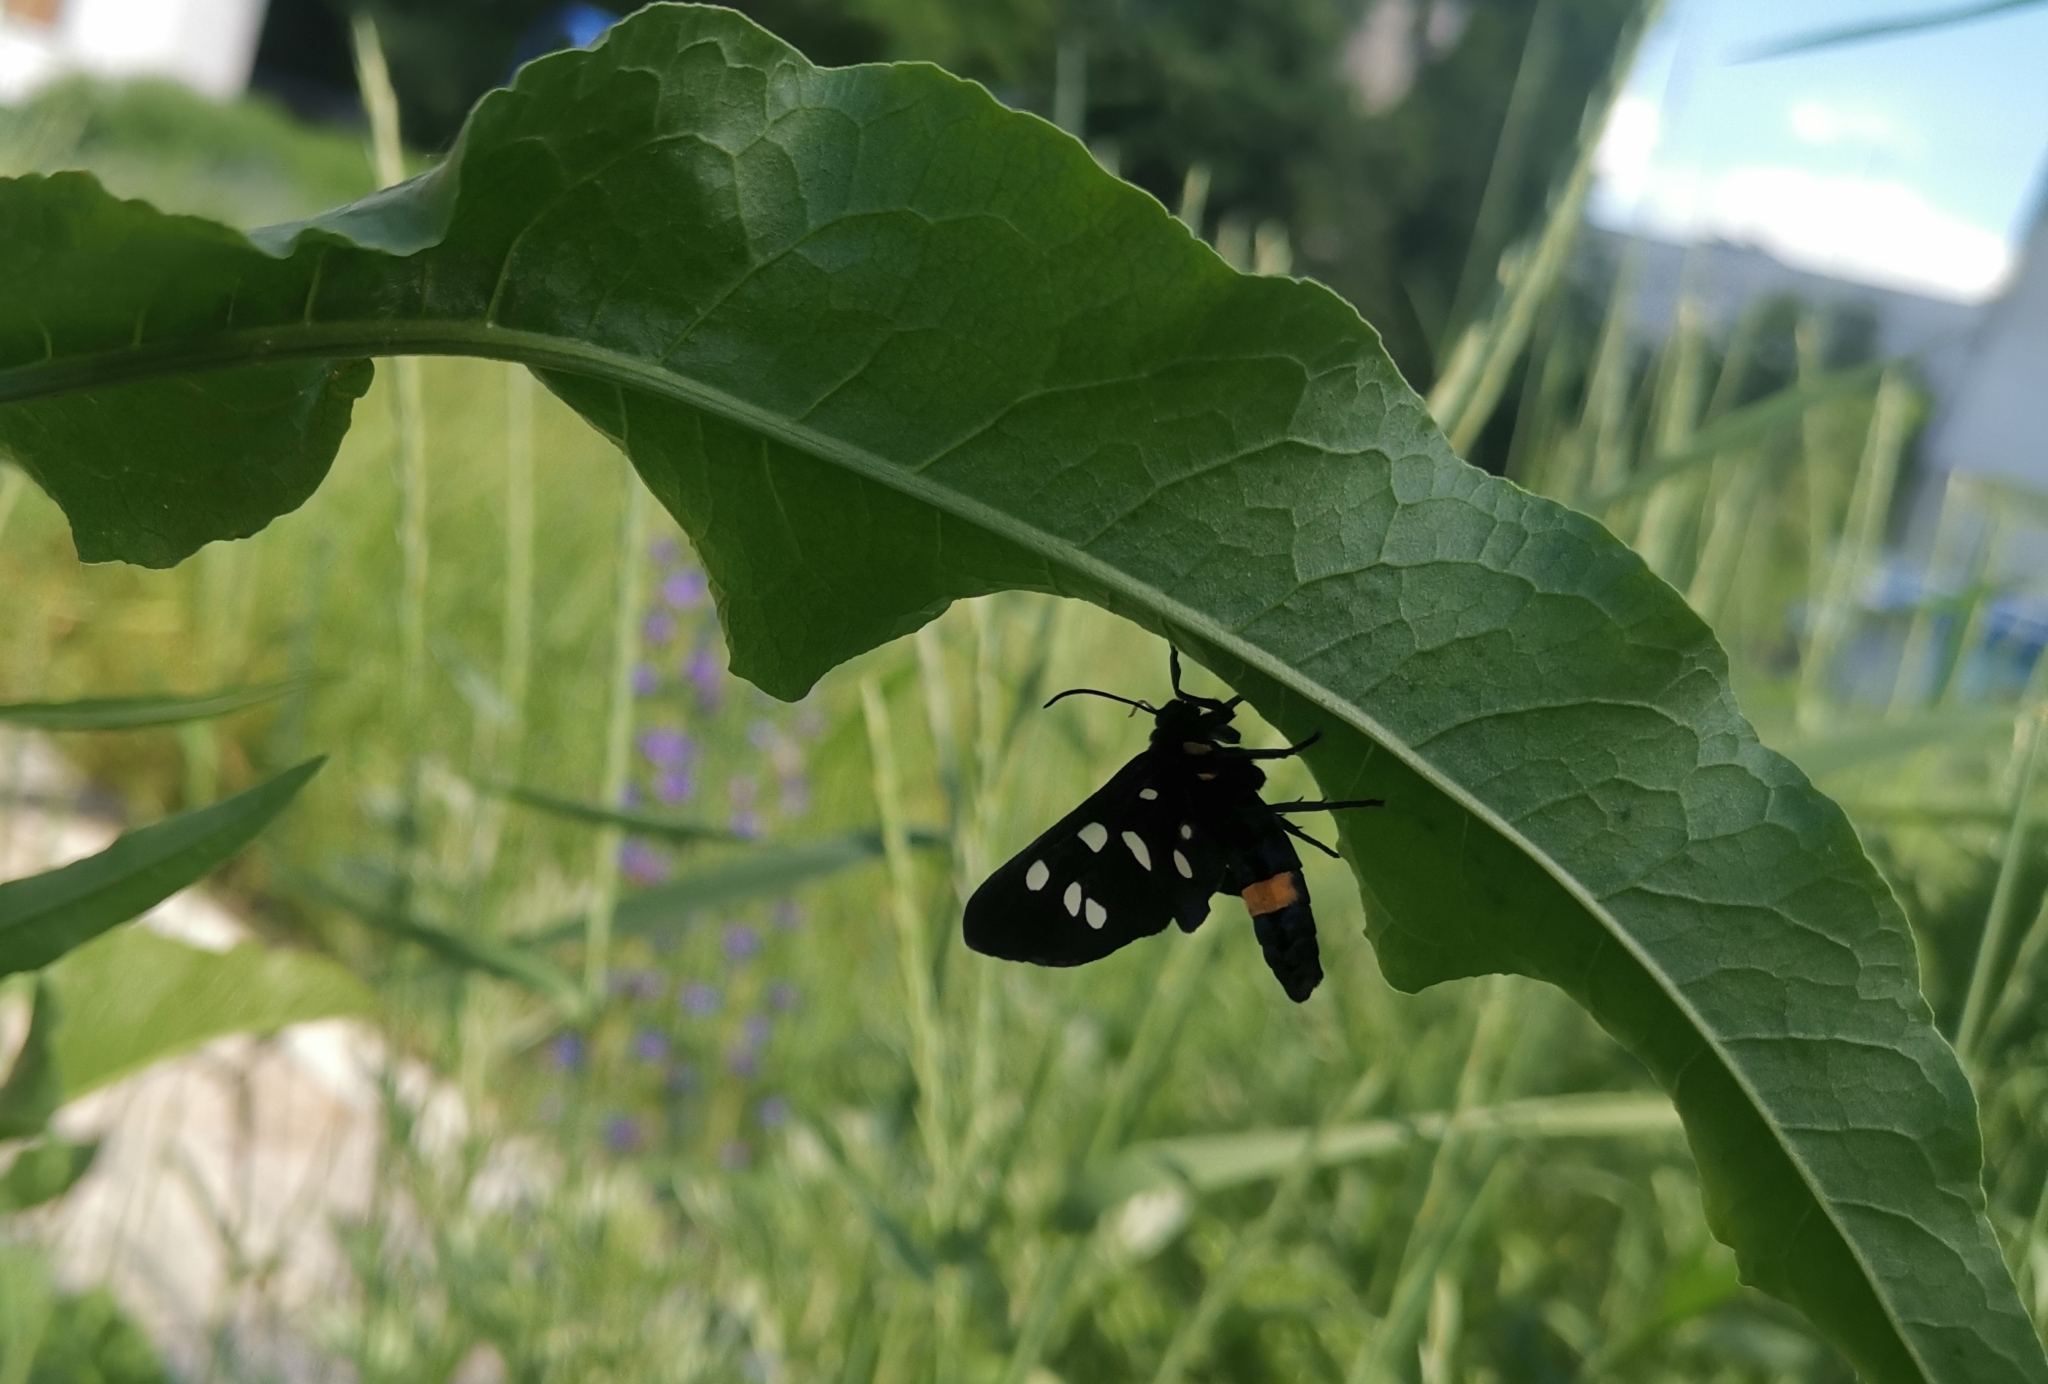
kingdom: Animalia
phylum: Arthropoda
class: Insecta
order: Lepidoptera
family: Erebidae
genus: Amata
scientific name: Amata phegea
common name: Nine-spotted
